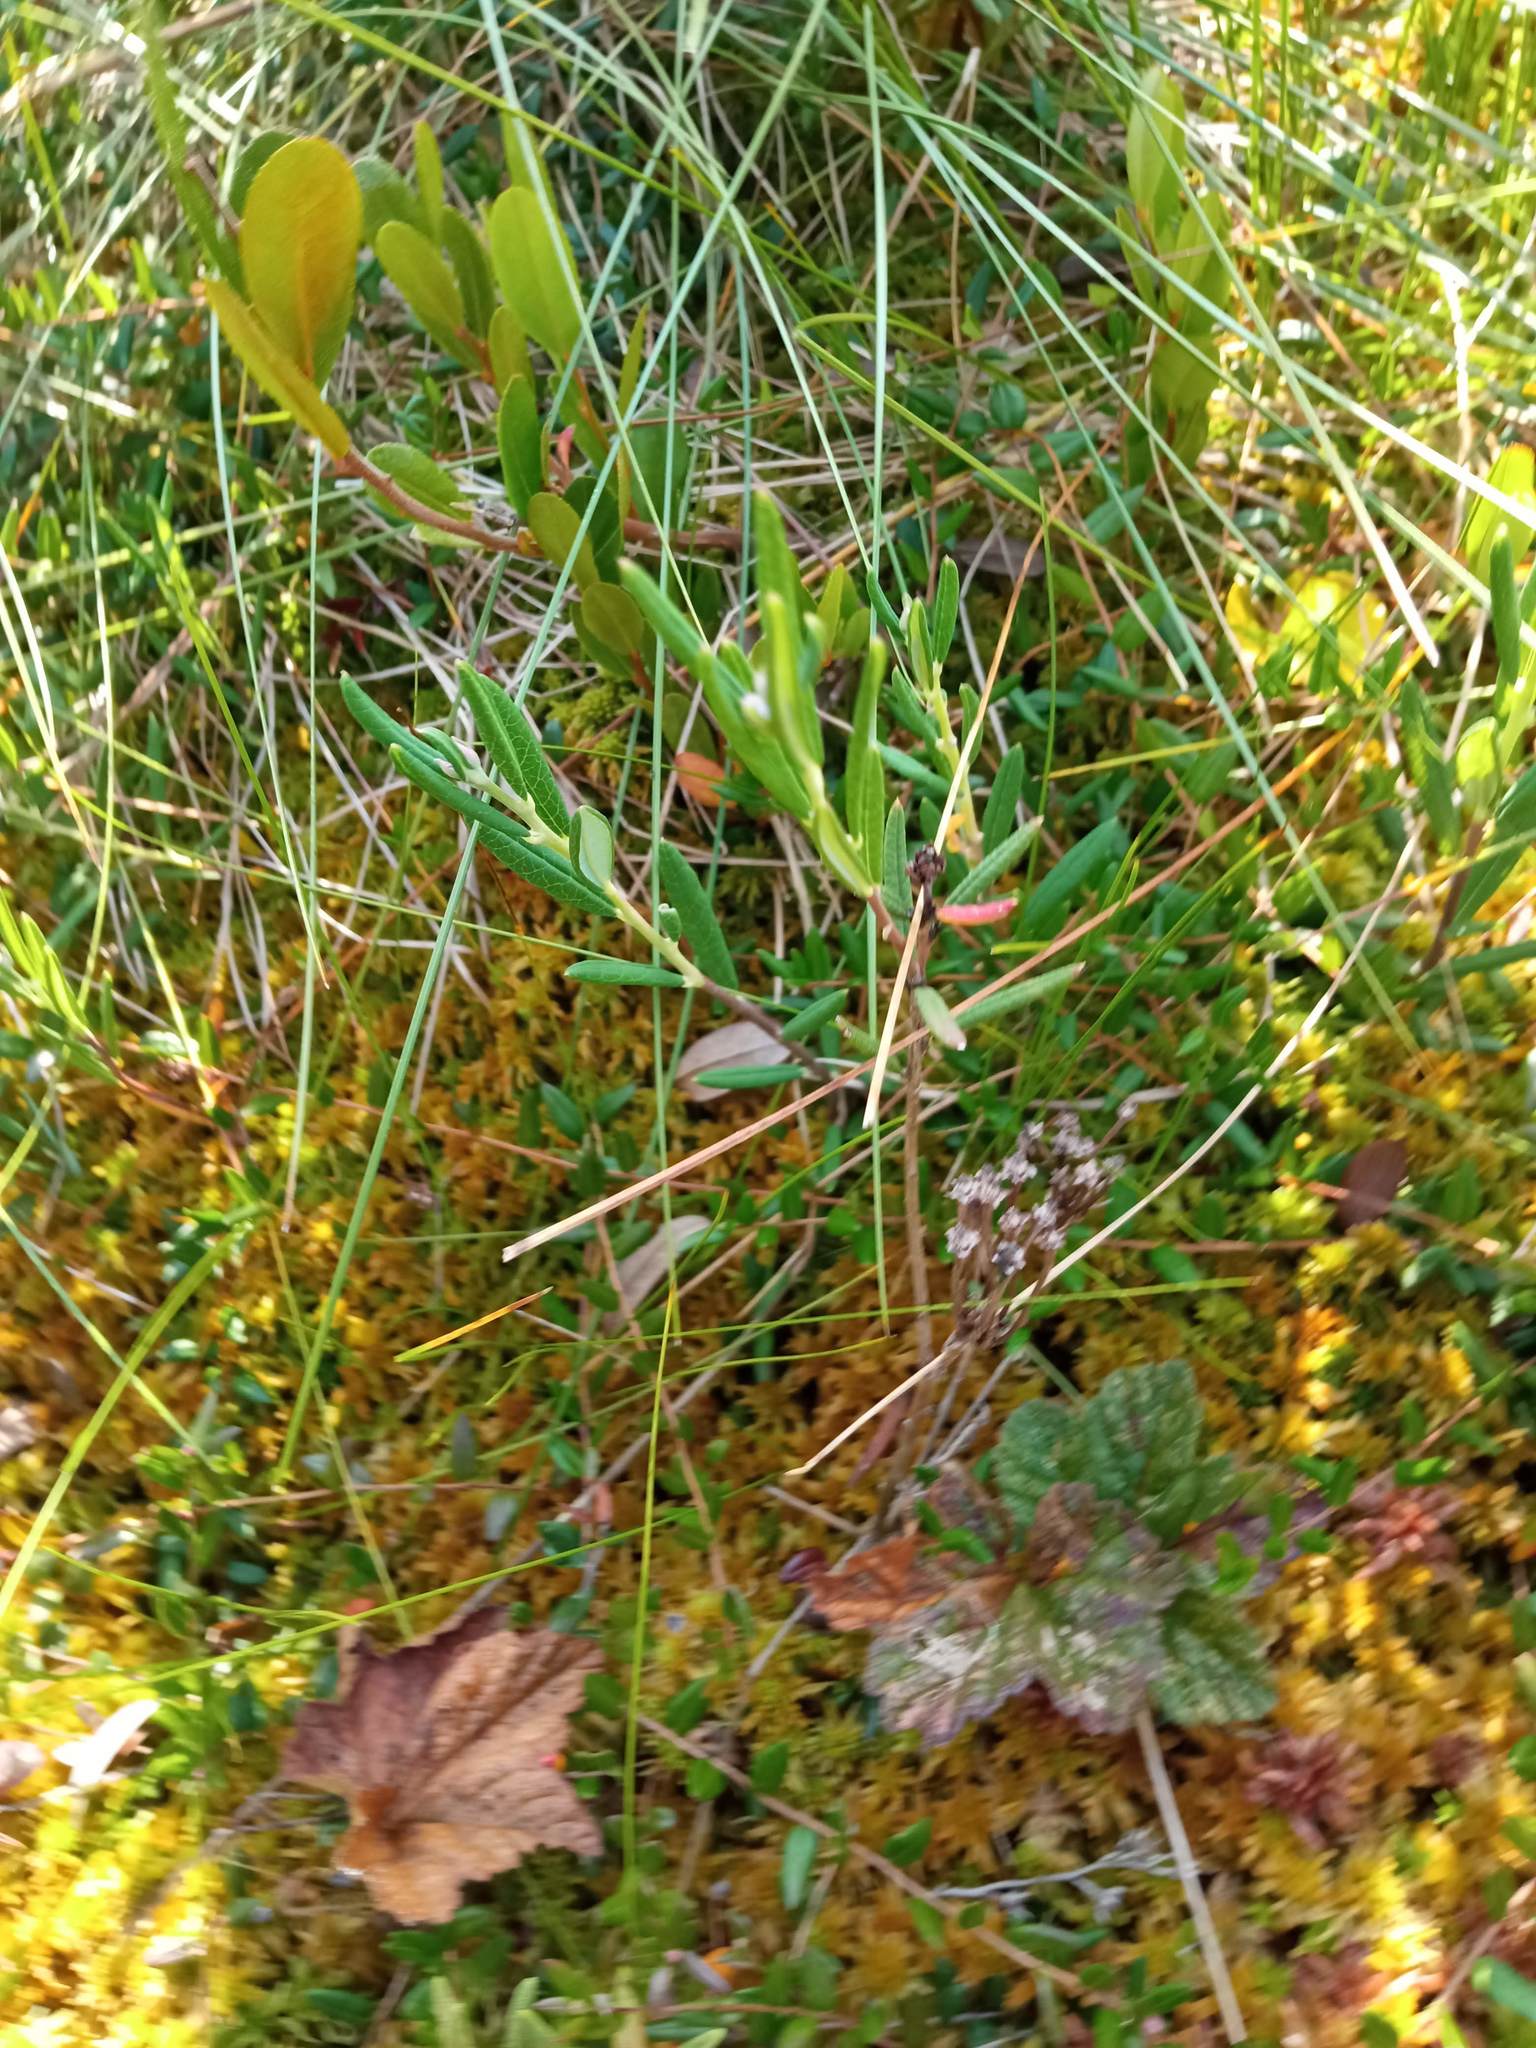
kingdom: Plantae
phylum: Tracheophyta
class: Magnoliopsida
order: Ericales
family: Ericaceae
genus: Andromeda
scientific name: Andromeda polifolia
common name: Bog-rosemary
